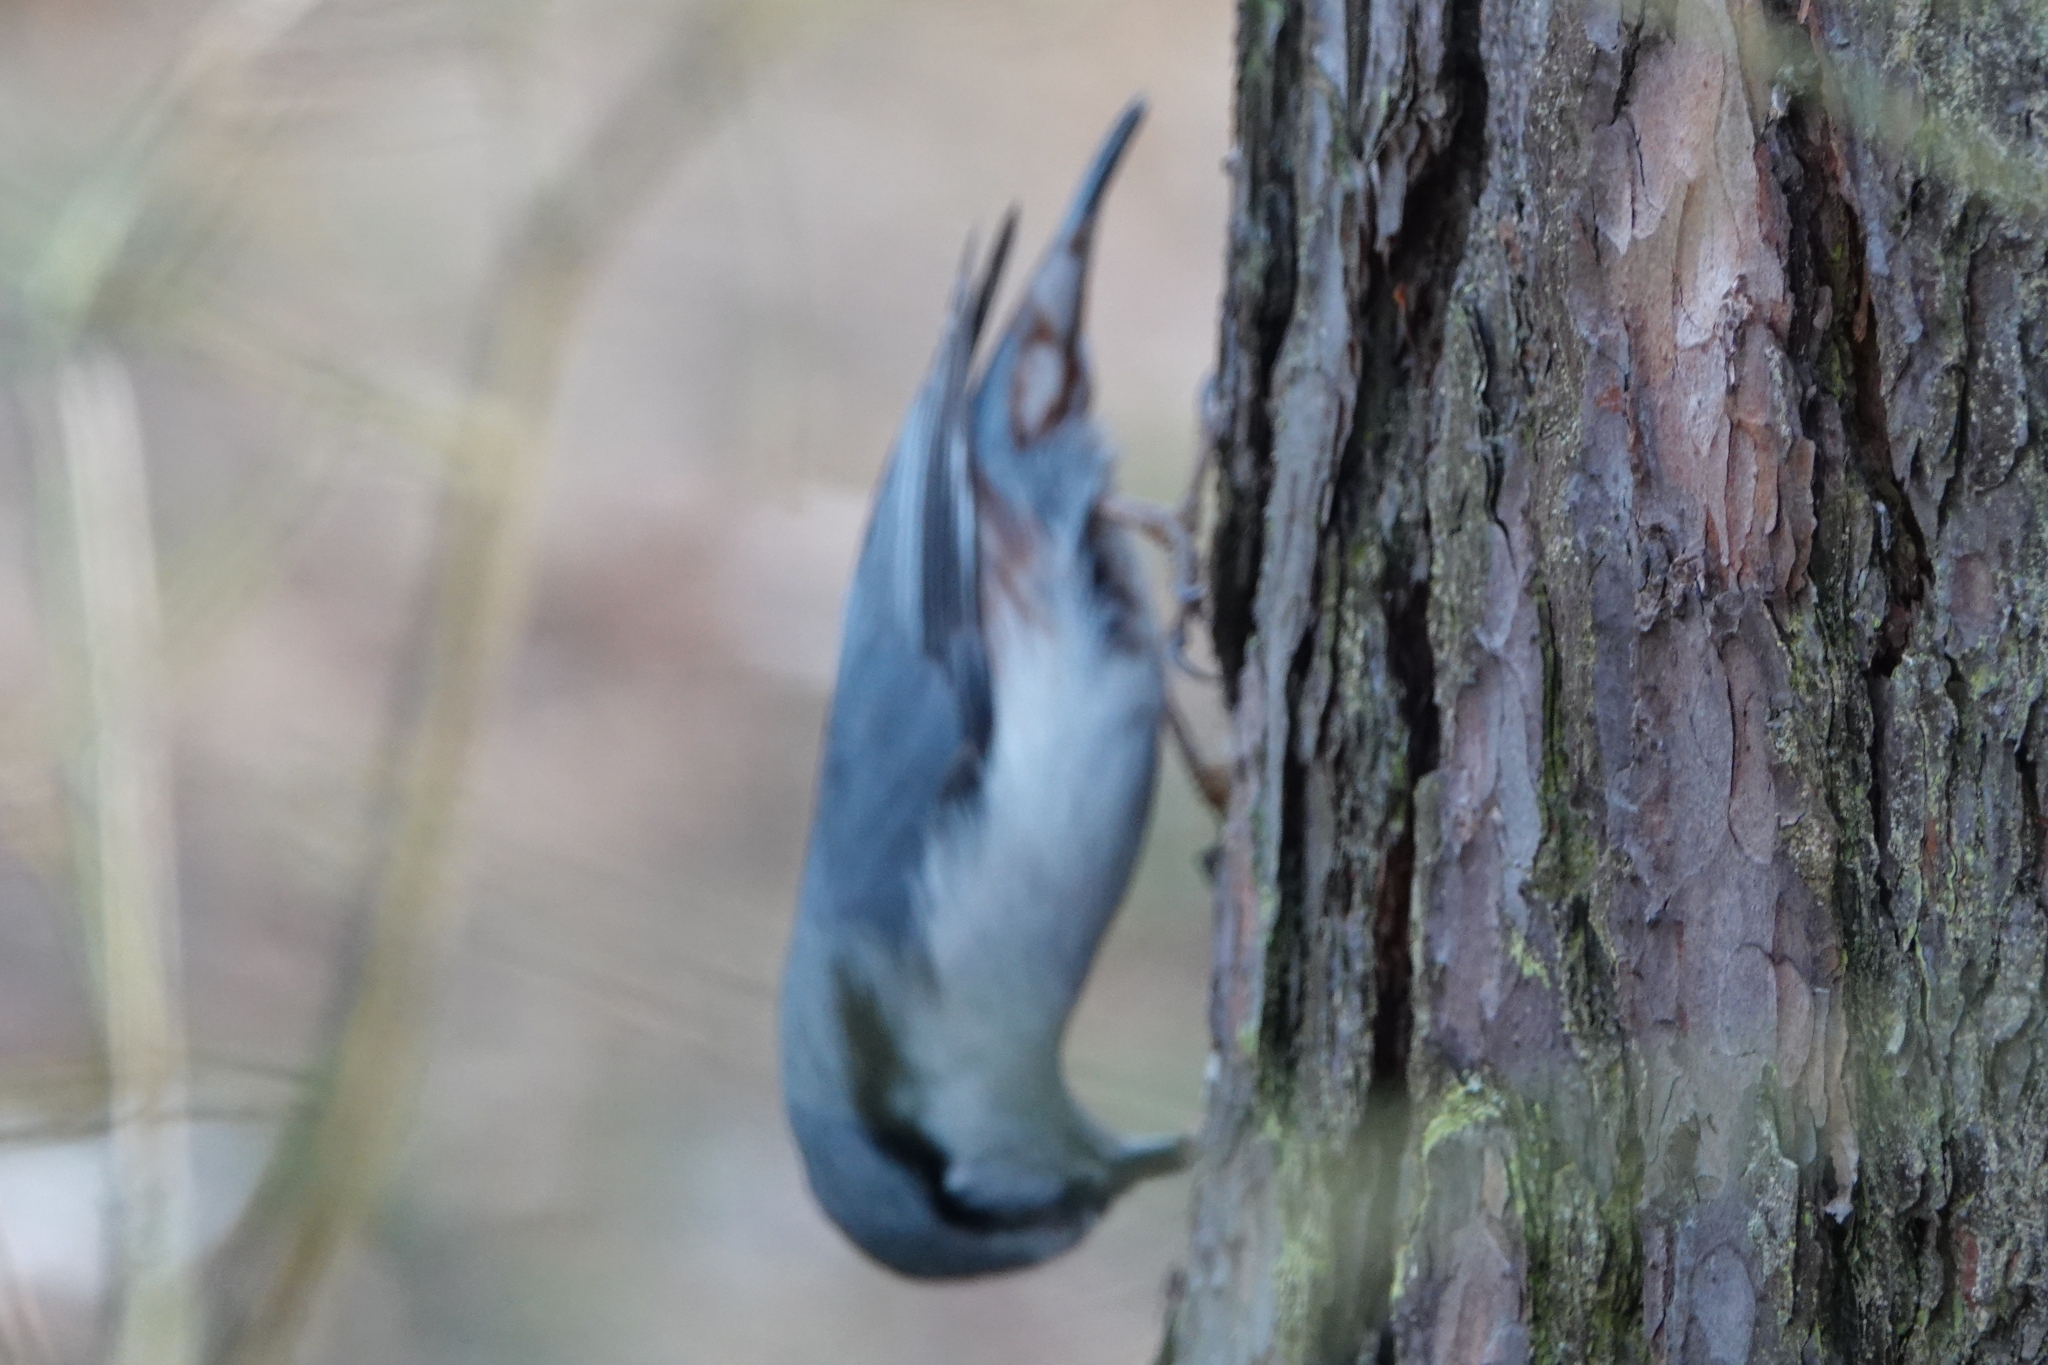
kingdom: Animalia
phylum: Chordata
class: Aves
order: Passeriformes
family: Sittidae
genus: Sitta
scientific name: Sitta europaea
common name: Eurasian nuthatch
